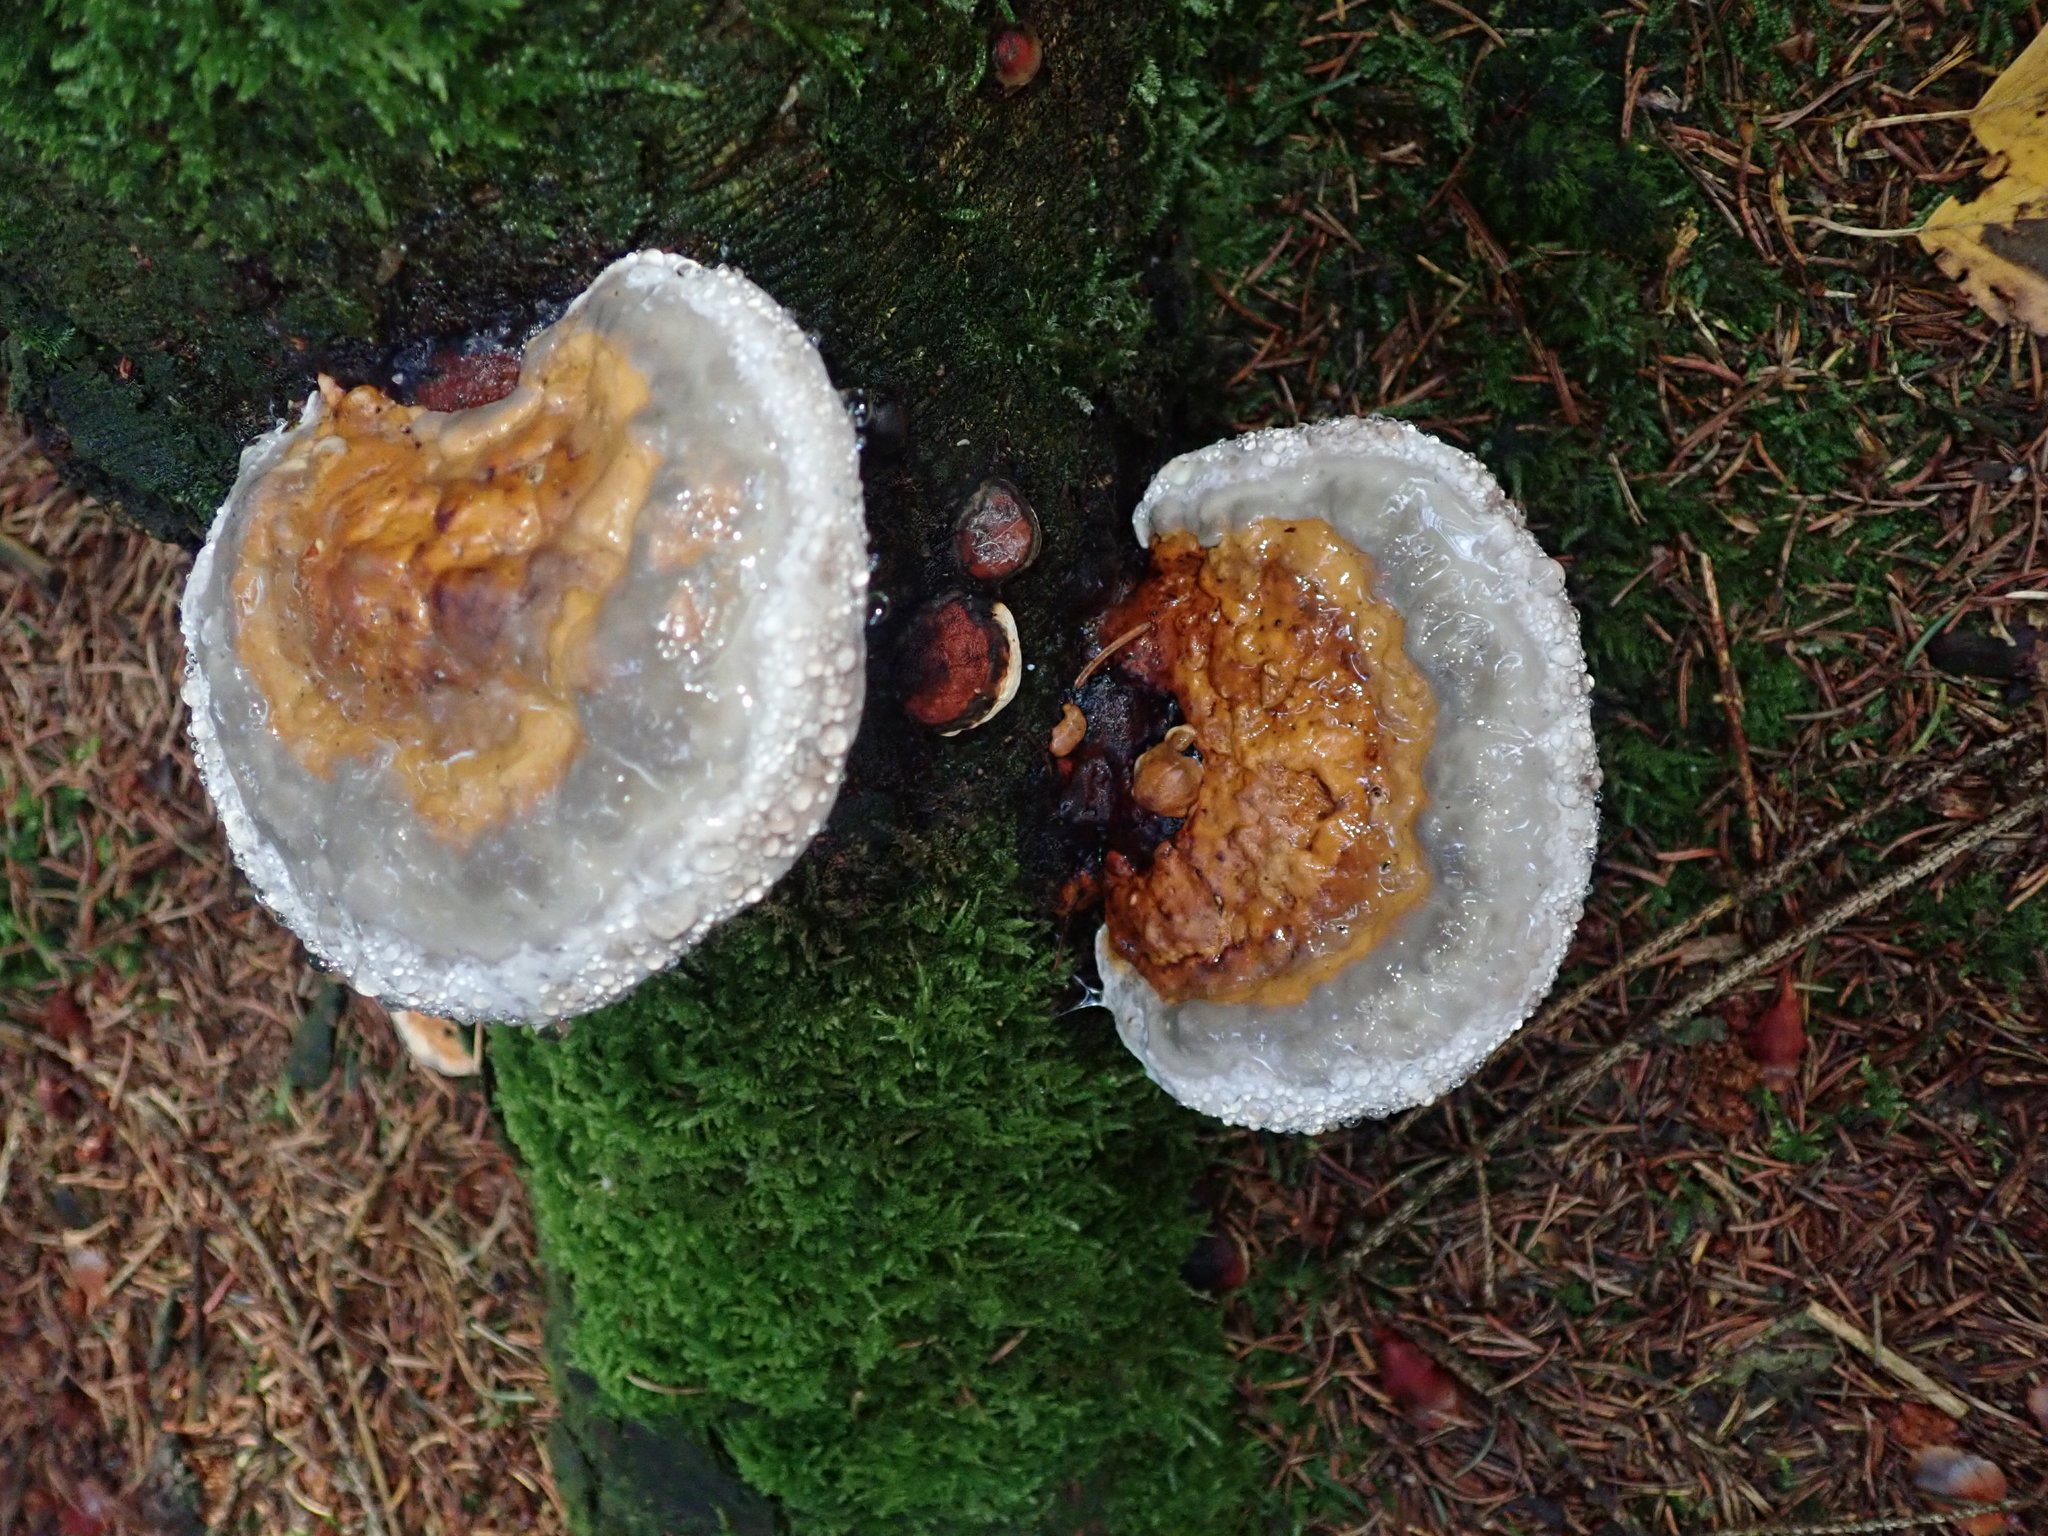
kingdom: Fungi
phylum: Basidiomycota
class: Agaricomycetes
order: Polyporales
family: Fomitopsidaceae
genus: Fomitopsis
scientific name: Fomitopsis pinicola
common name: Red-belted bracket
